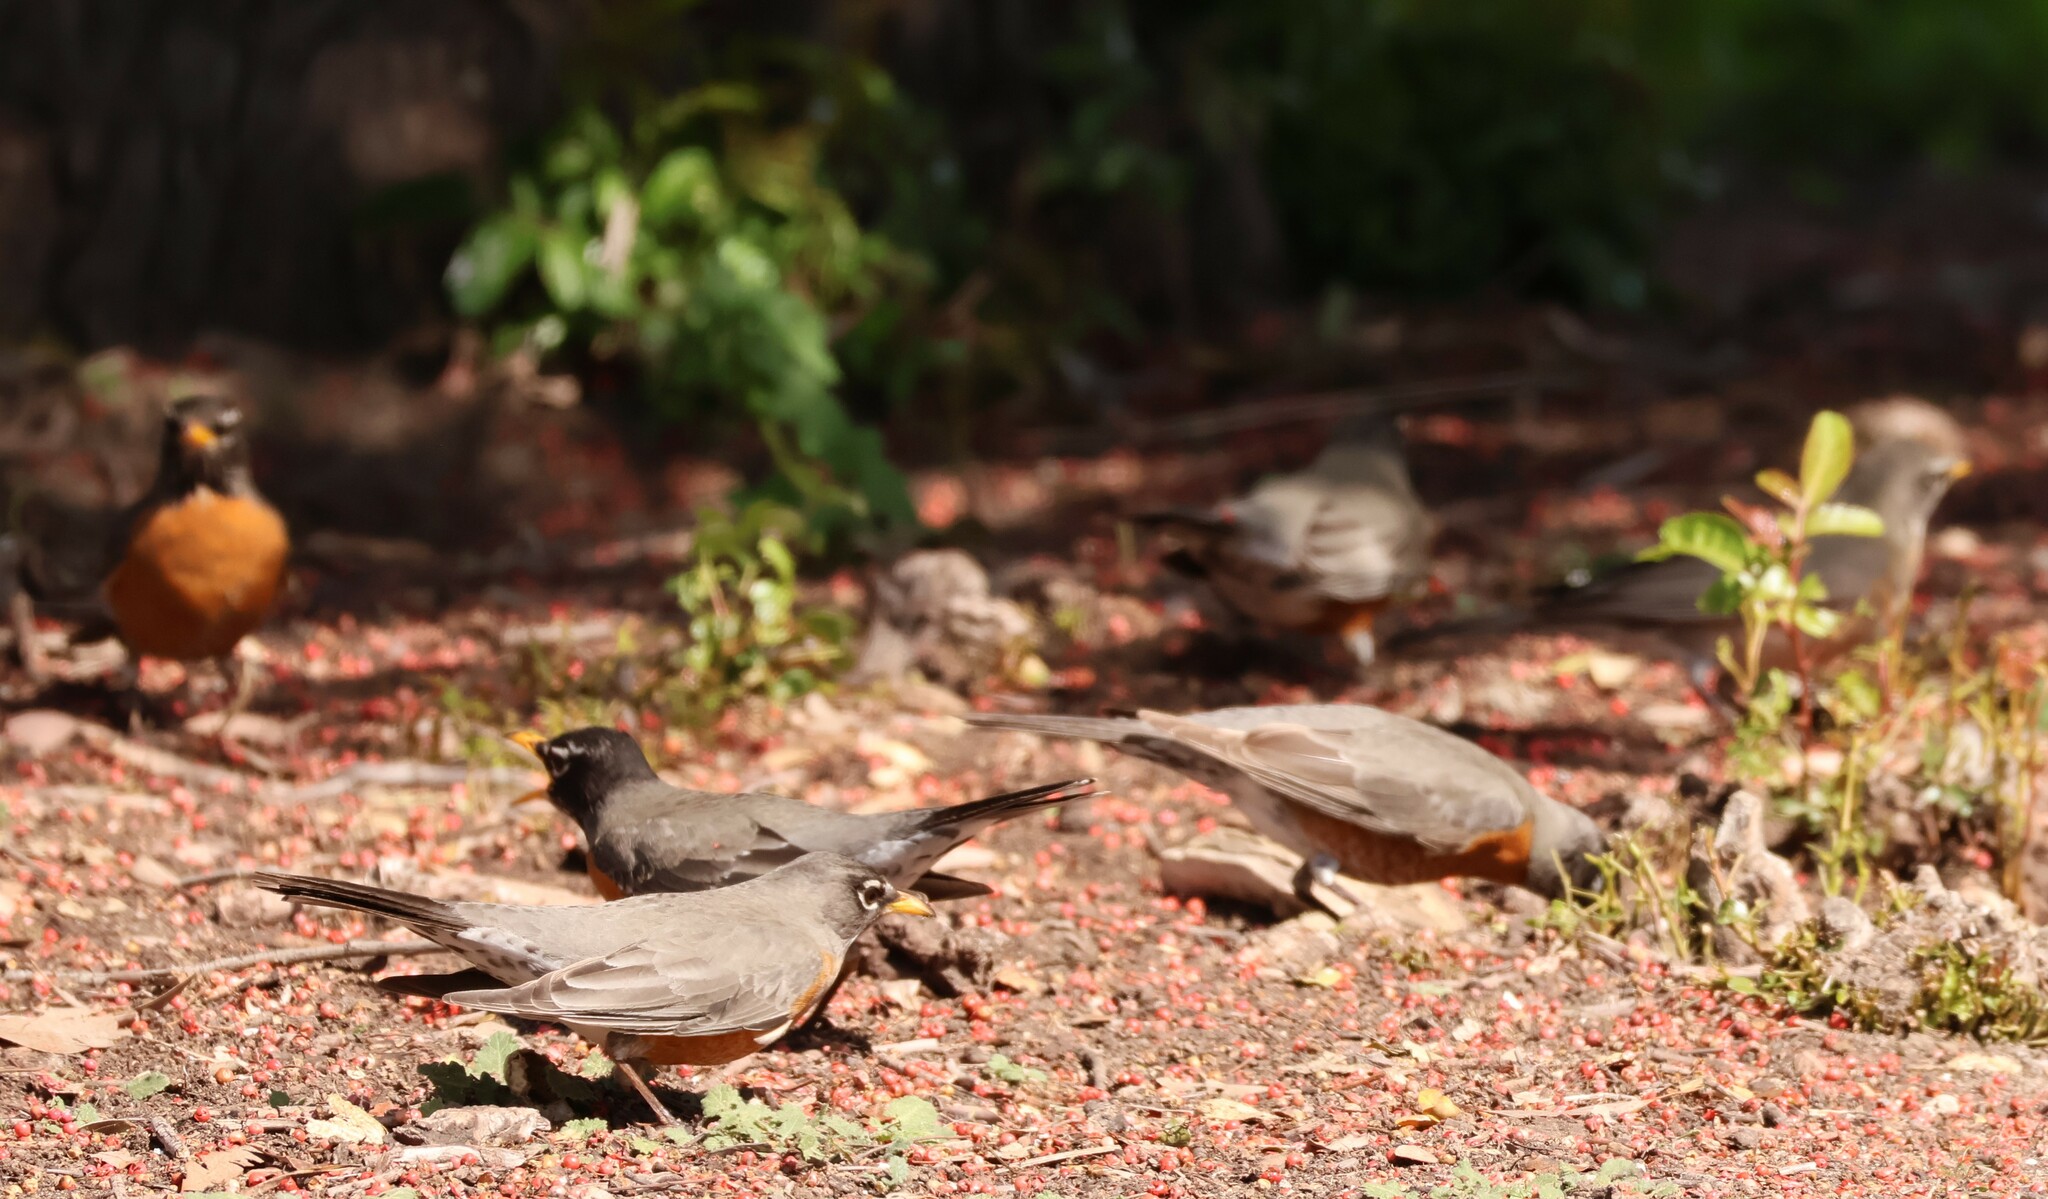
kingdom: Animalia
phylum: Chordata
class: Aves
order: Passeriformes
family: Turdidae
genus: Turdus
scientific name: Turdus migratorius
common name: American robin
